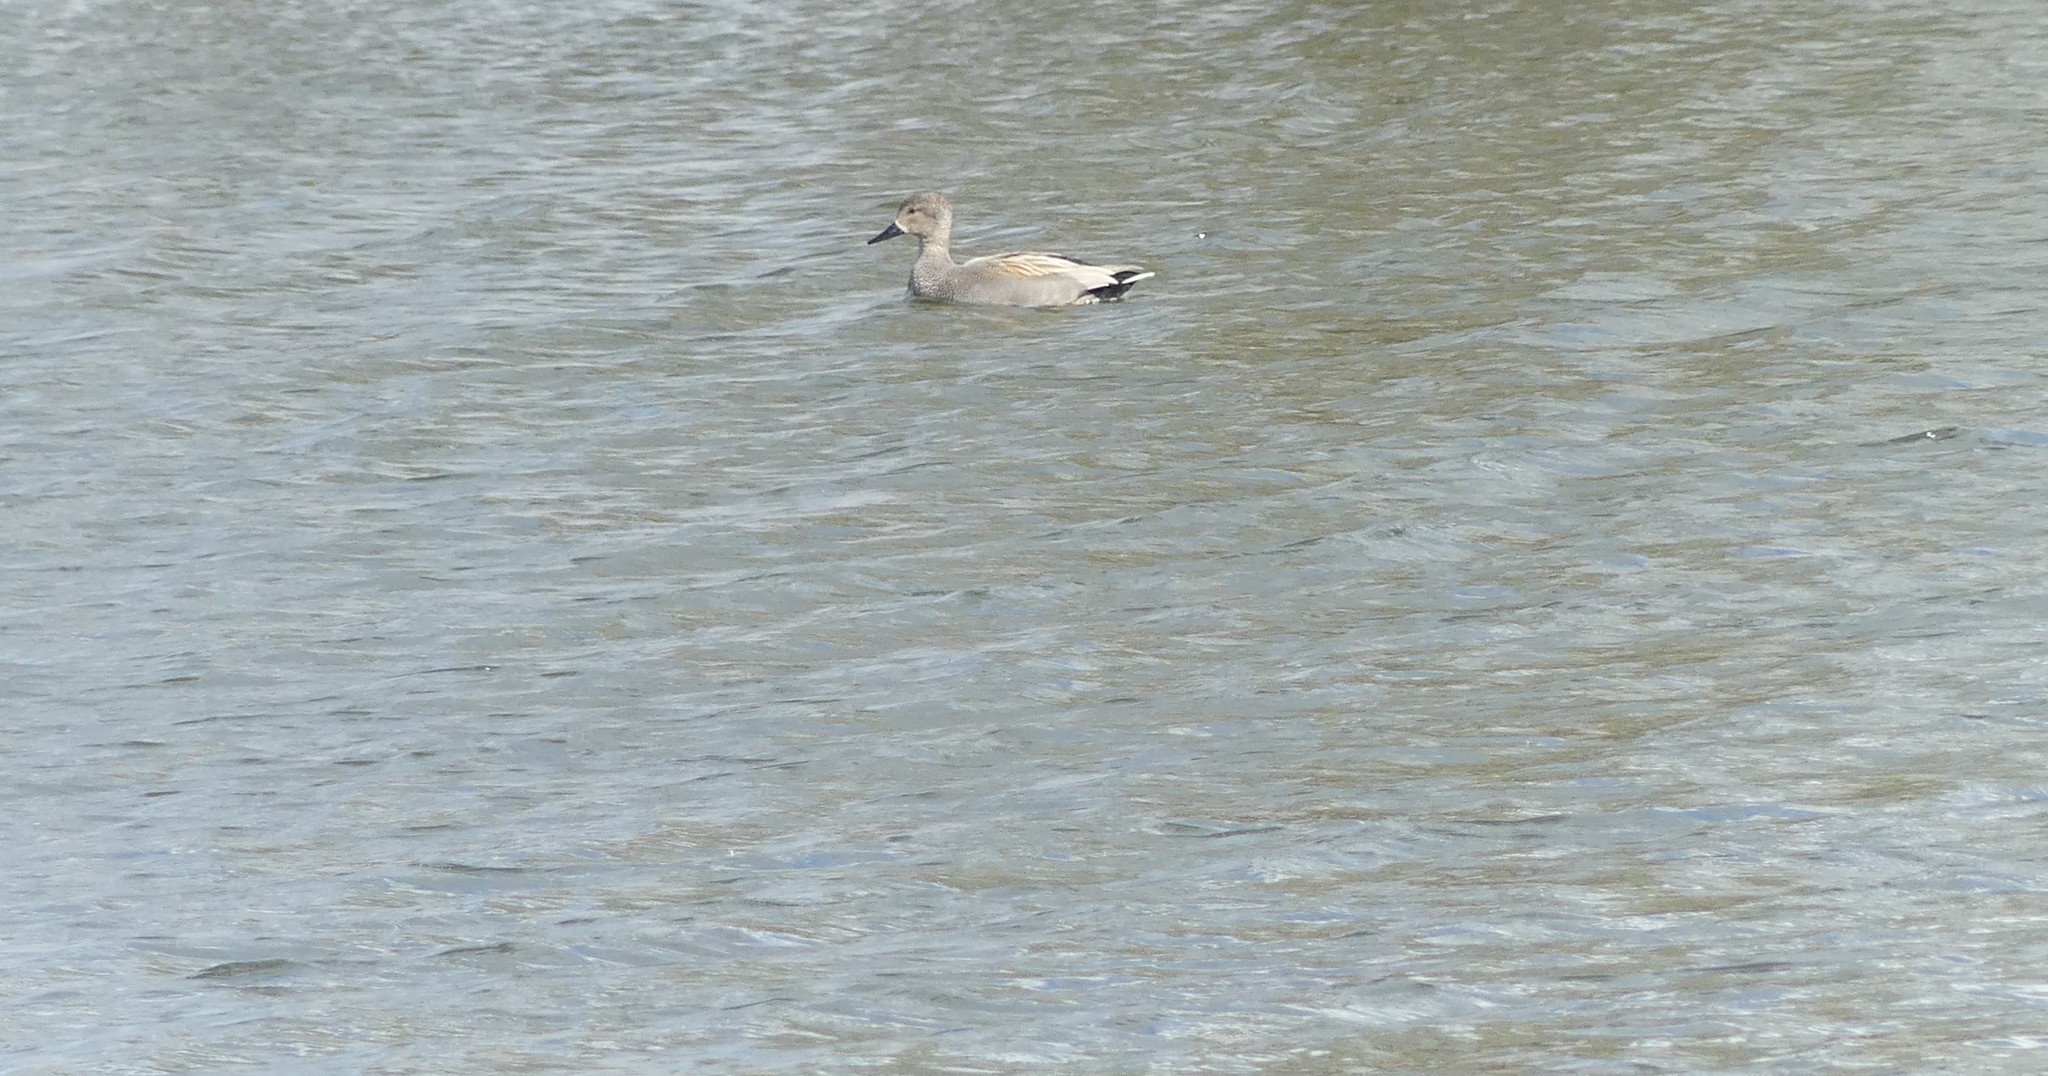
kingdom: Animalia
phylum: Chordata
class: Aves
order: Anseriformes
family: Anatidae
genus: Mareca
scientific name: Mareca strepera
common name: Gadwall
